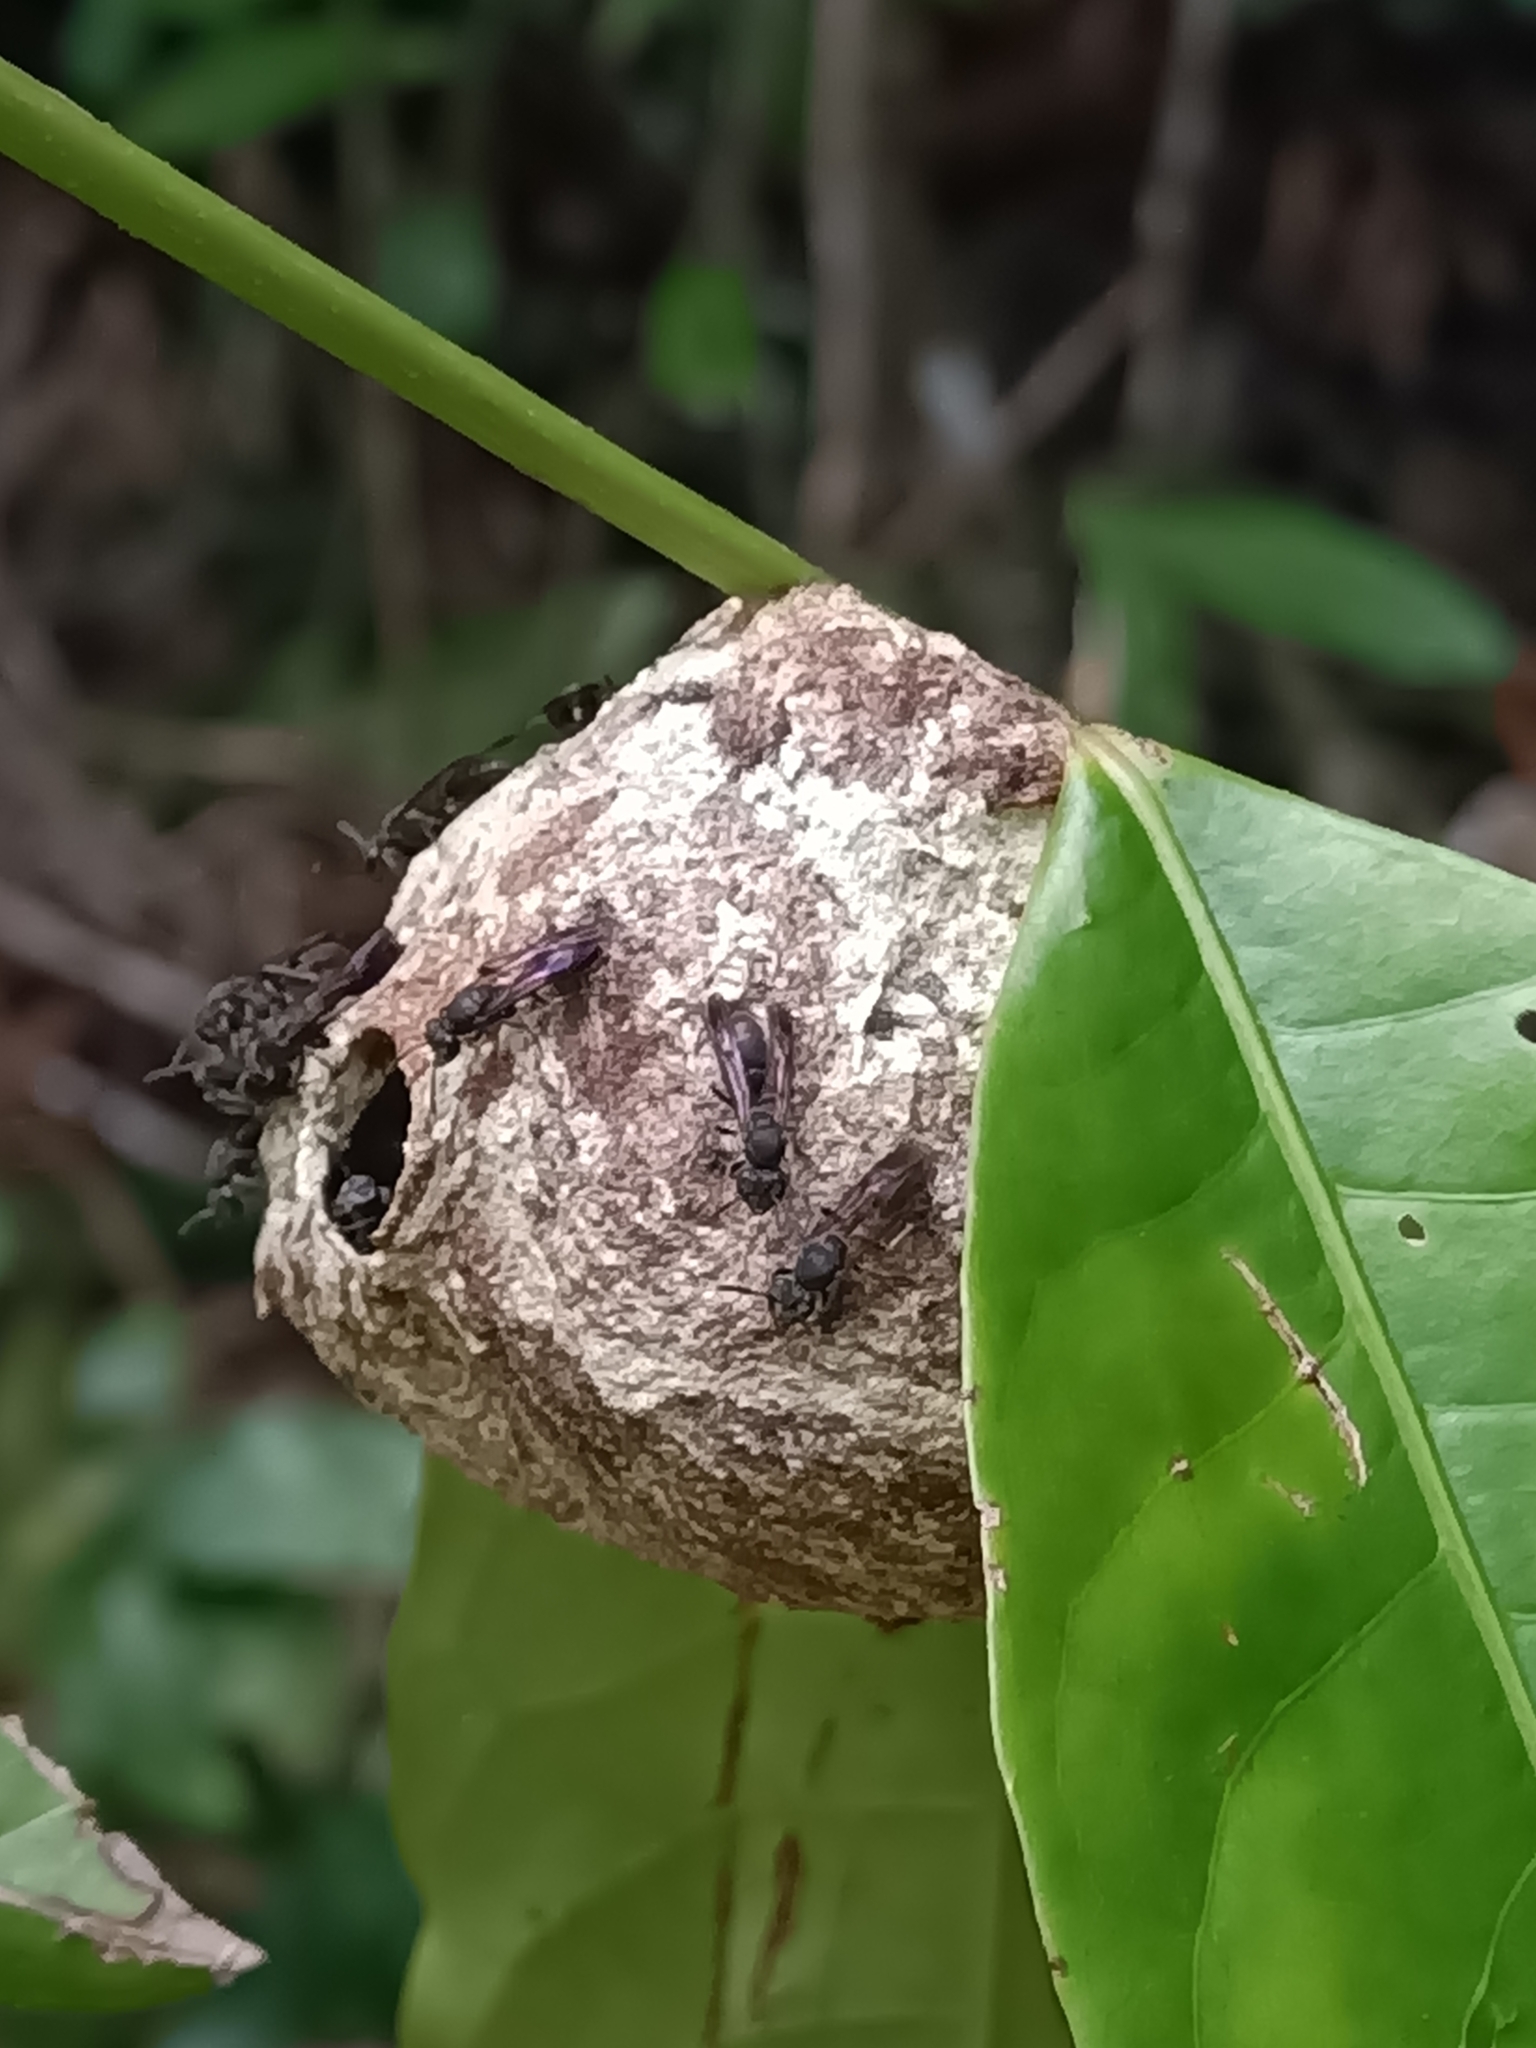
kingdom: Animalia
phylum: Arthropoda
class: Insecta
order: Hymenoptera
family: Eumenidae
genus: Polybia
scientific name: Polybia
